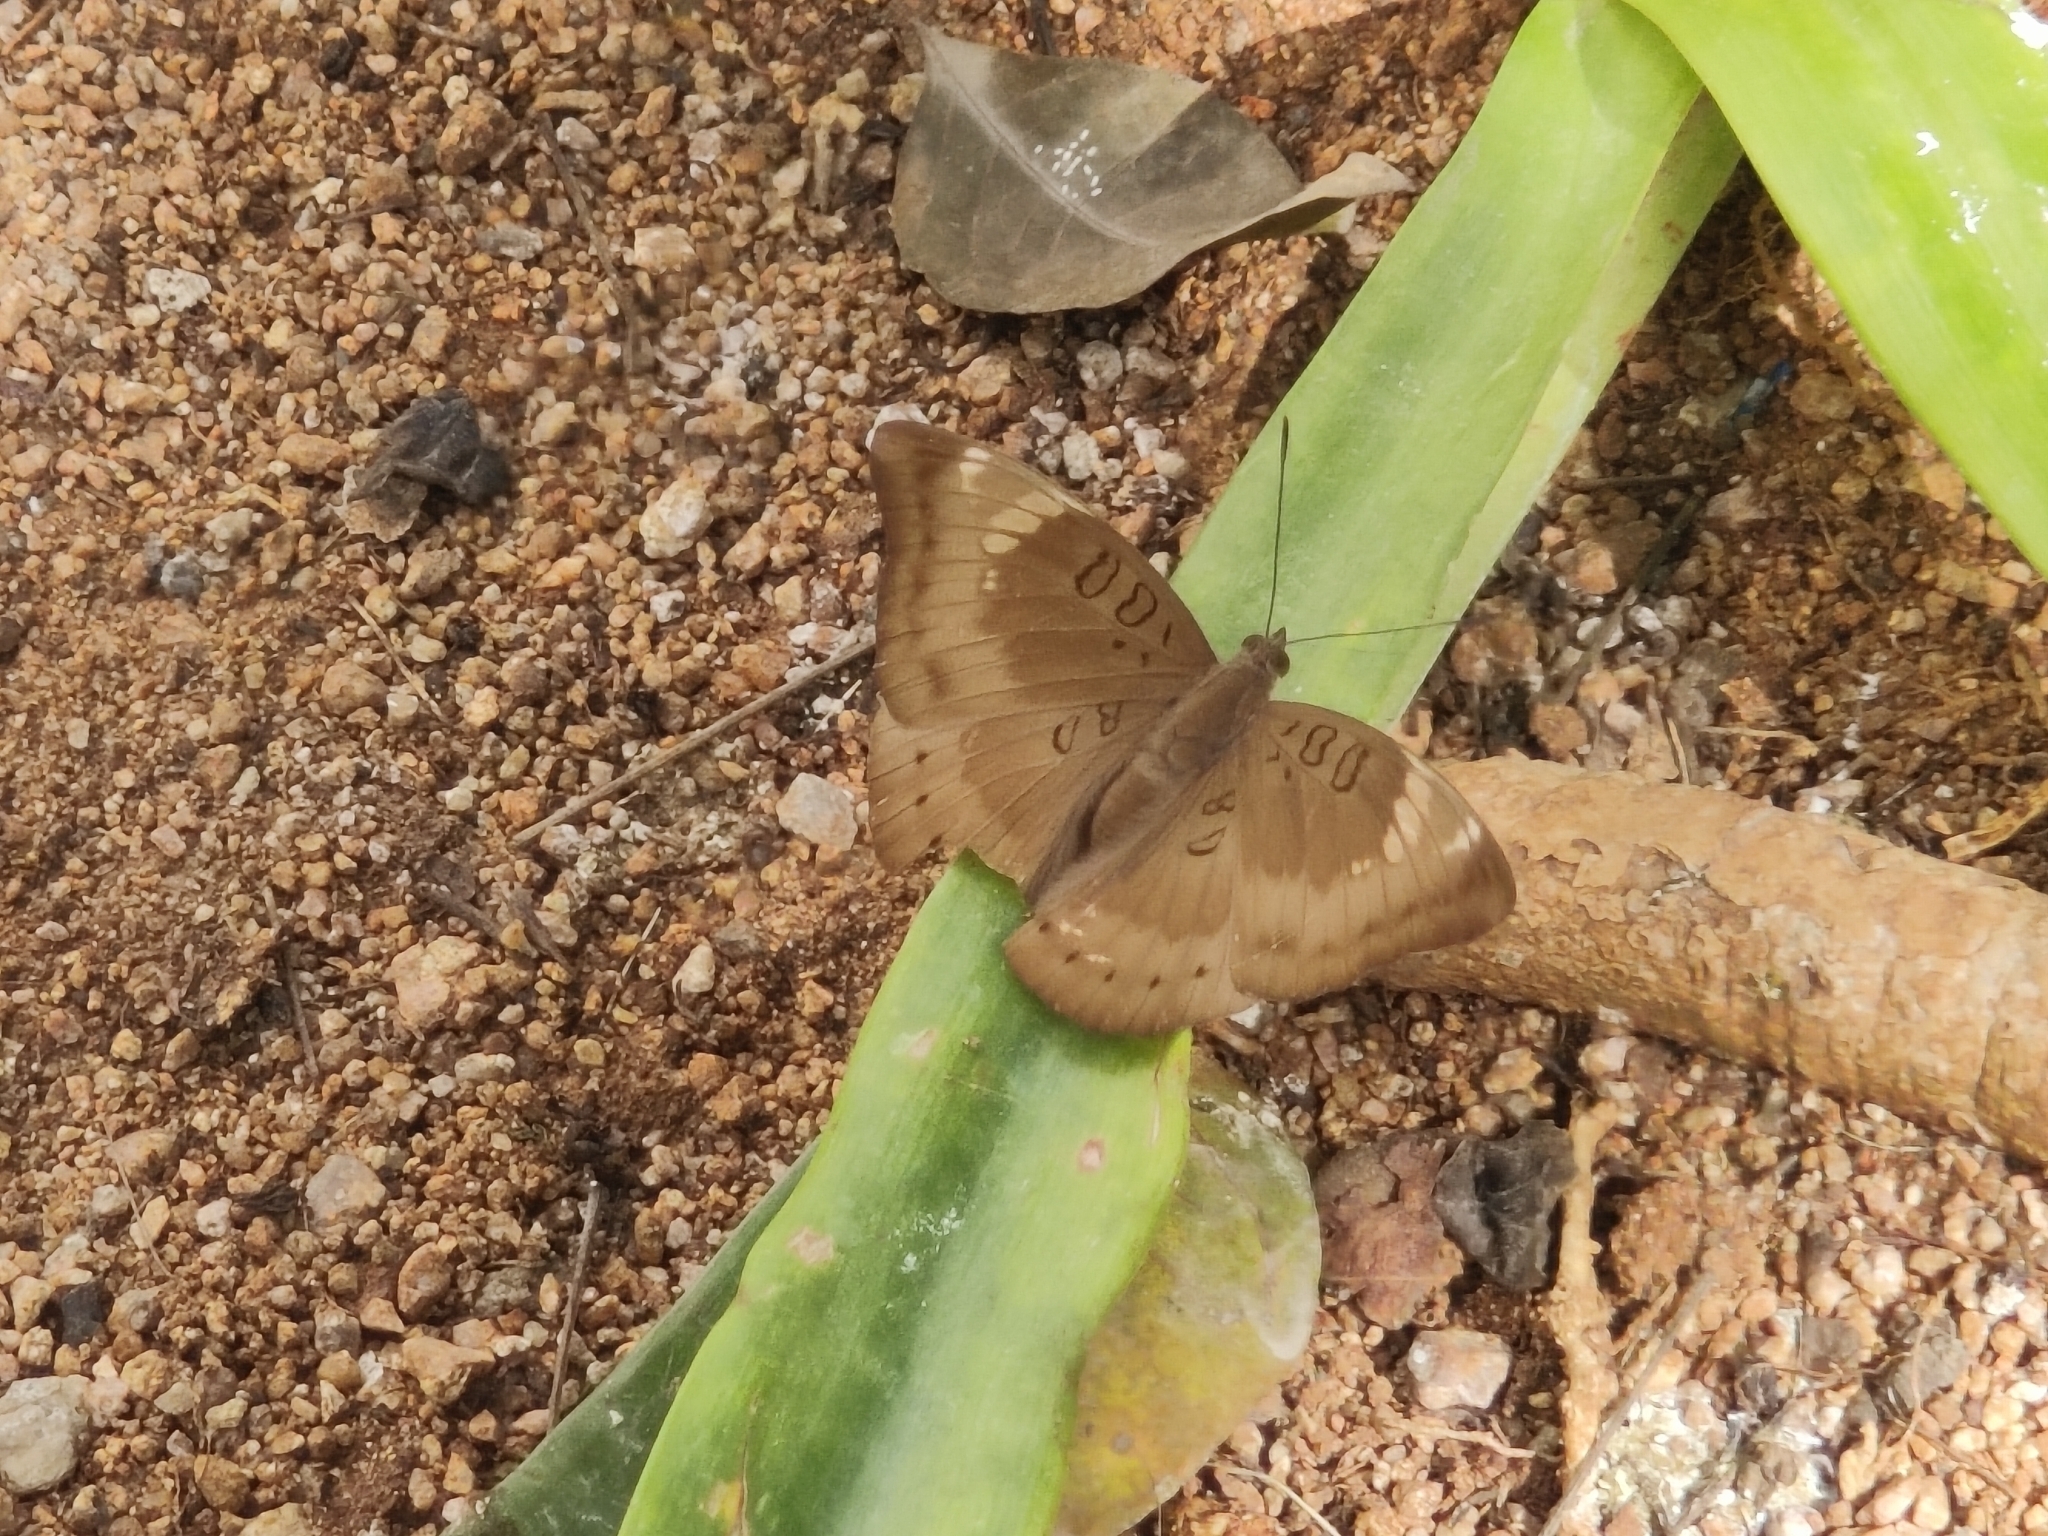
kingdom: Animalia
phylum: Arthropoda
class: Insecta
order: Lepidoptera
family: Nymphalidae
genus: Euthalia
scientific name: Euthalia aconthea
